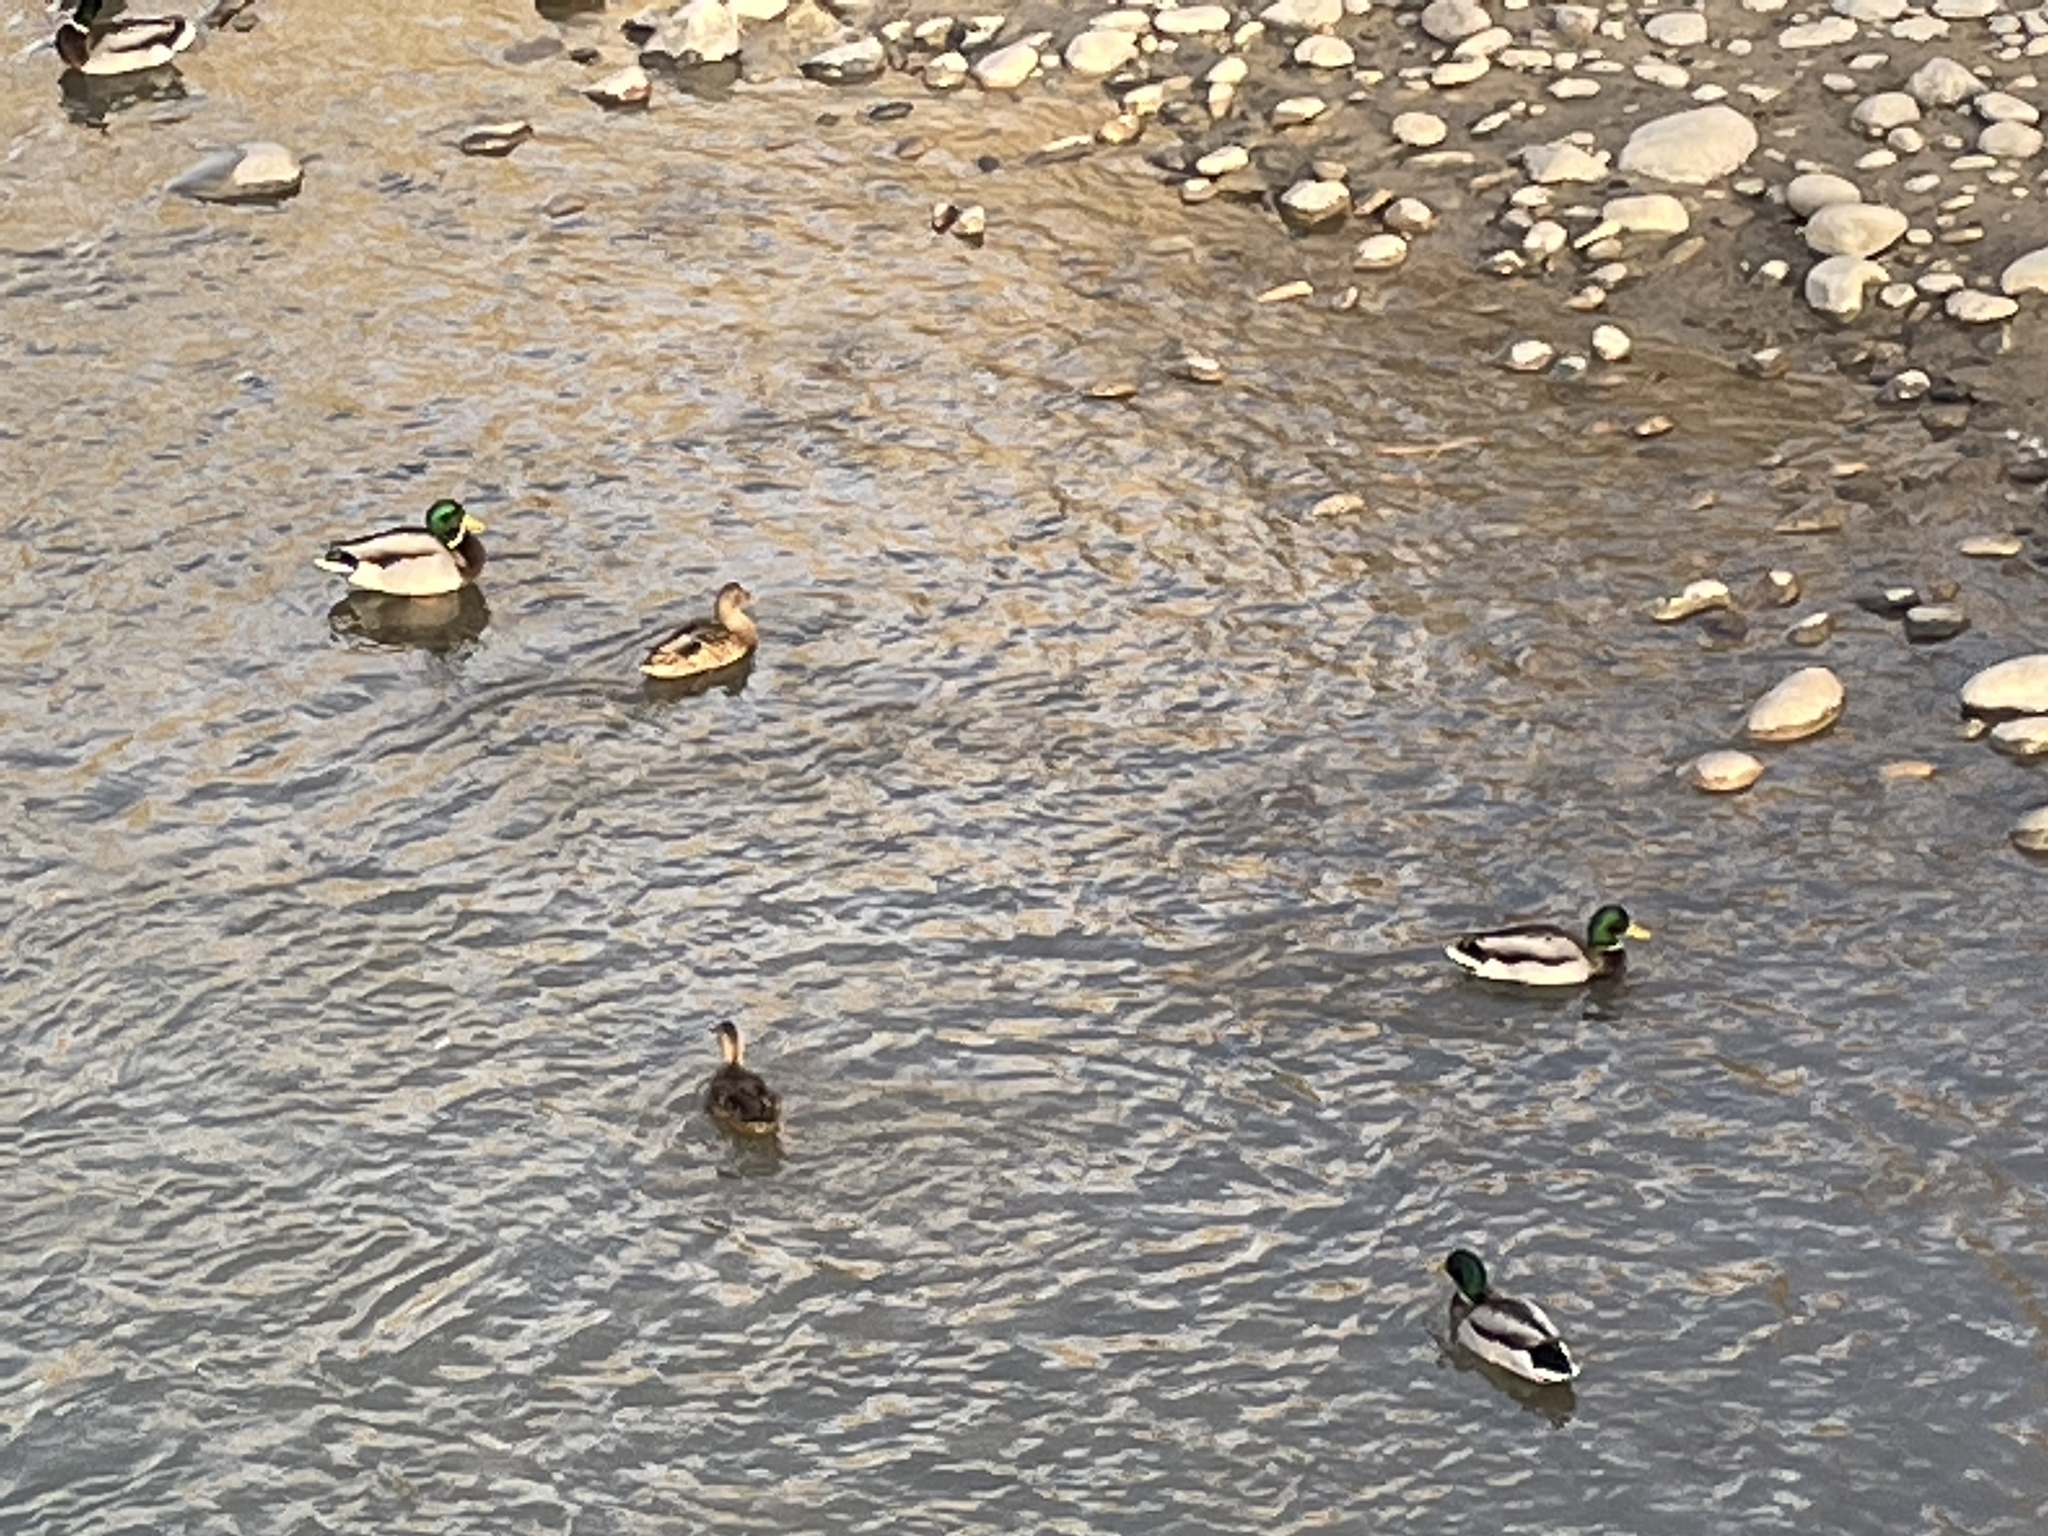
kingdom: Animalia
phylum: Chordata
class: Aves
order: Anseriformes
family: Anatidae
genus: Anas
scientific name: Anas platyrhynchos
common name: Mallard
